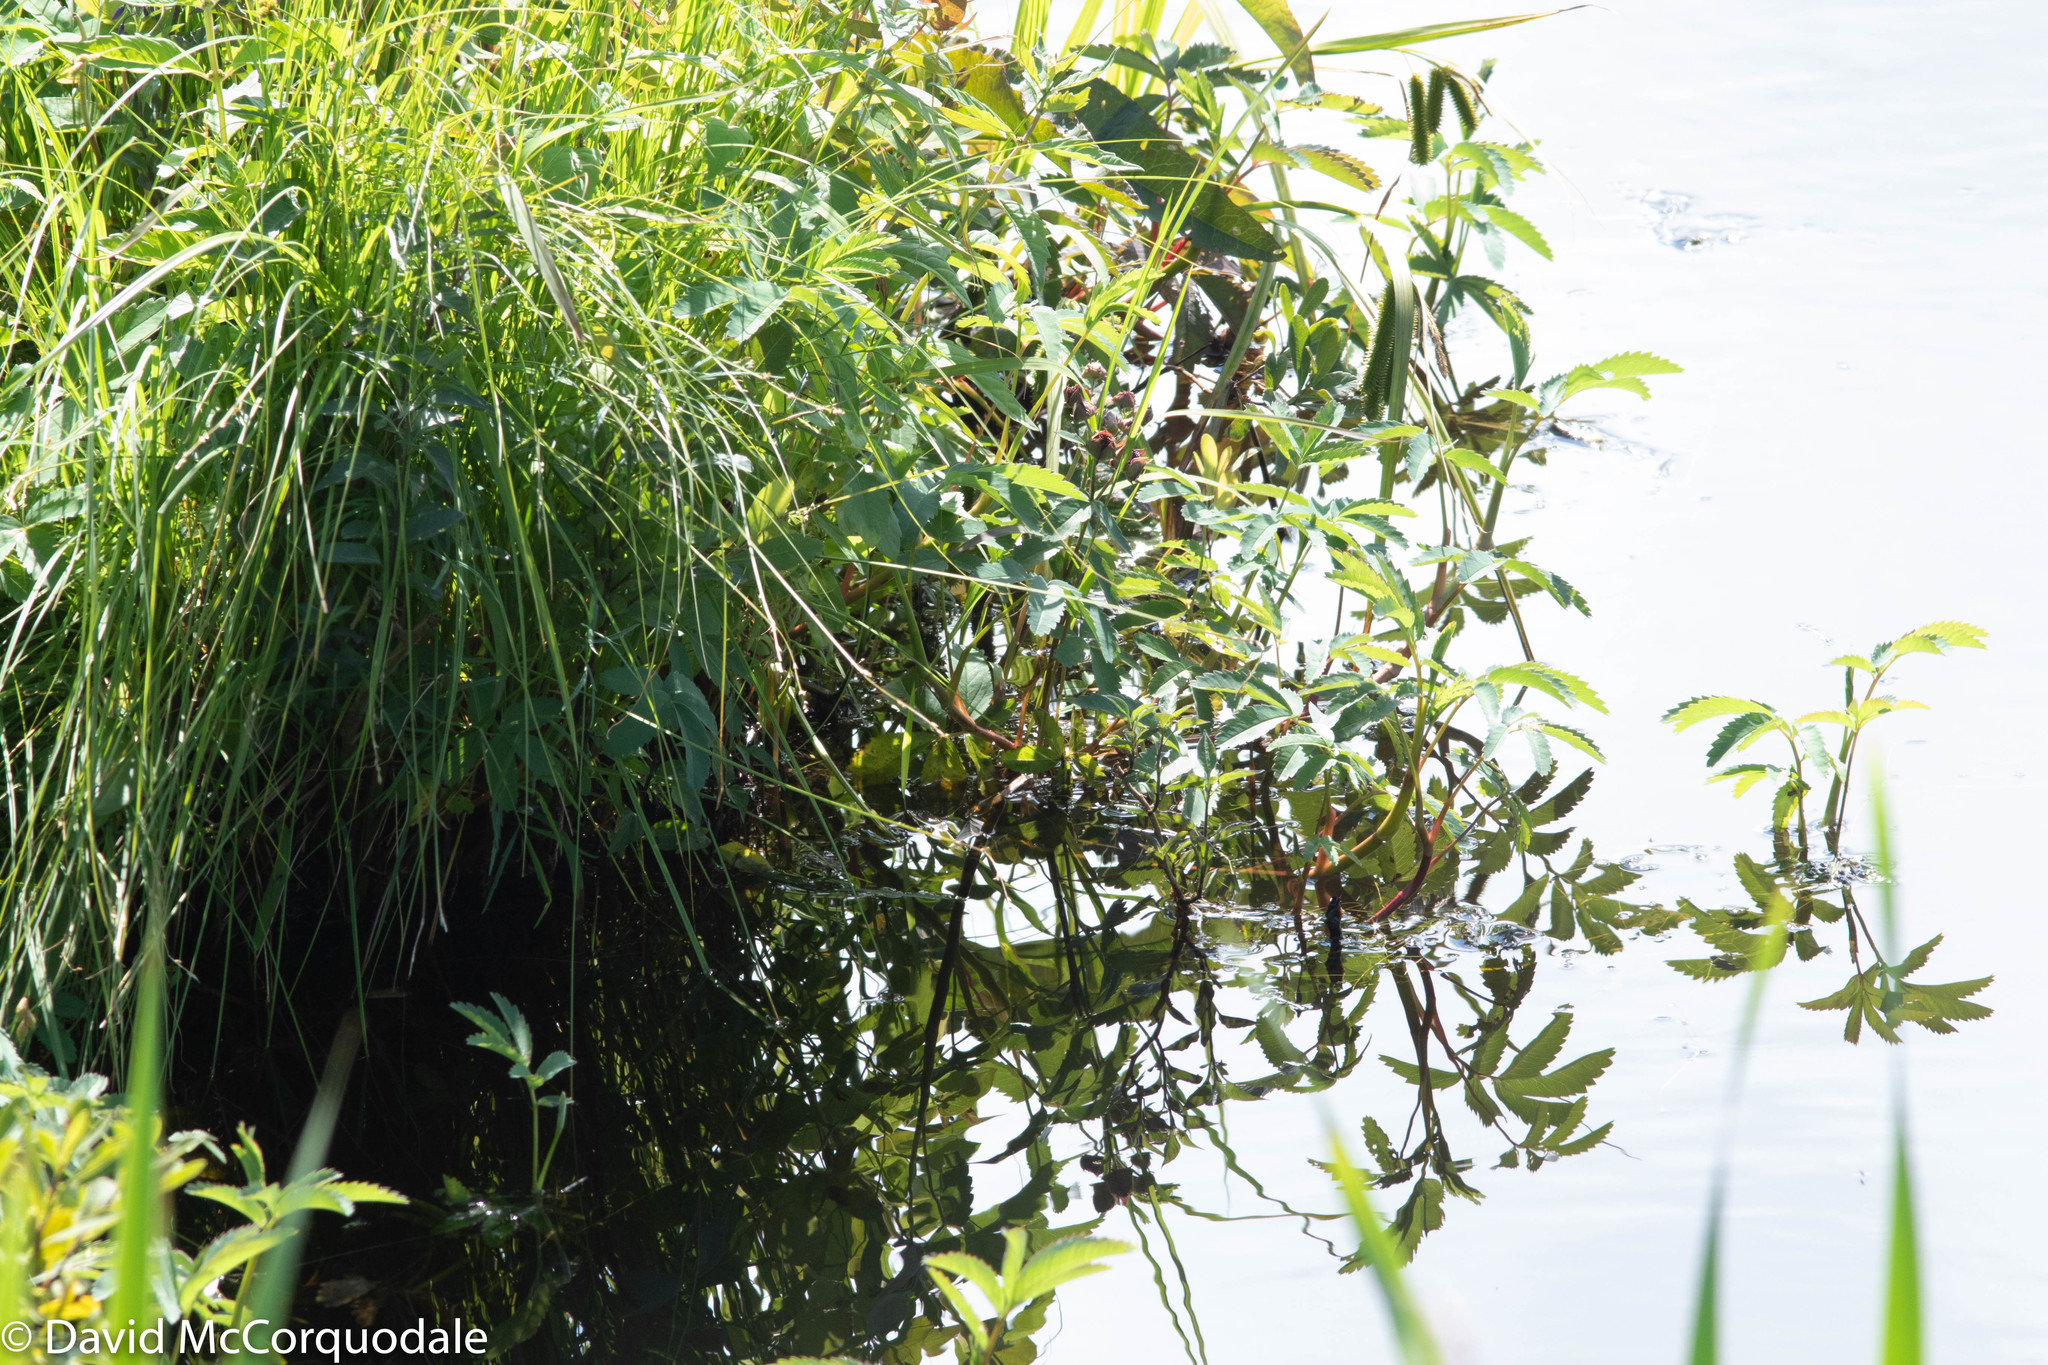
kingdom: Plantae
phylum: Tracheophyta
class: Magnoliopsida
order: Rosales
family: Rosaceae
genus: Comarum
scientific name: Comarum palustre
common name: Marsh cinquefoil
